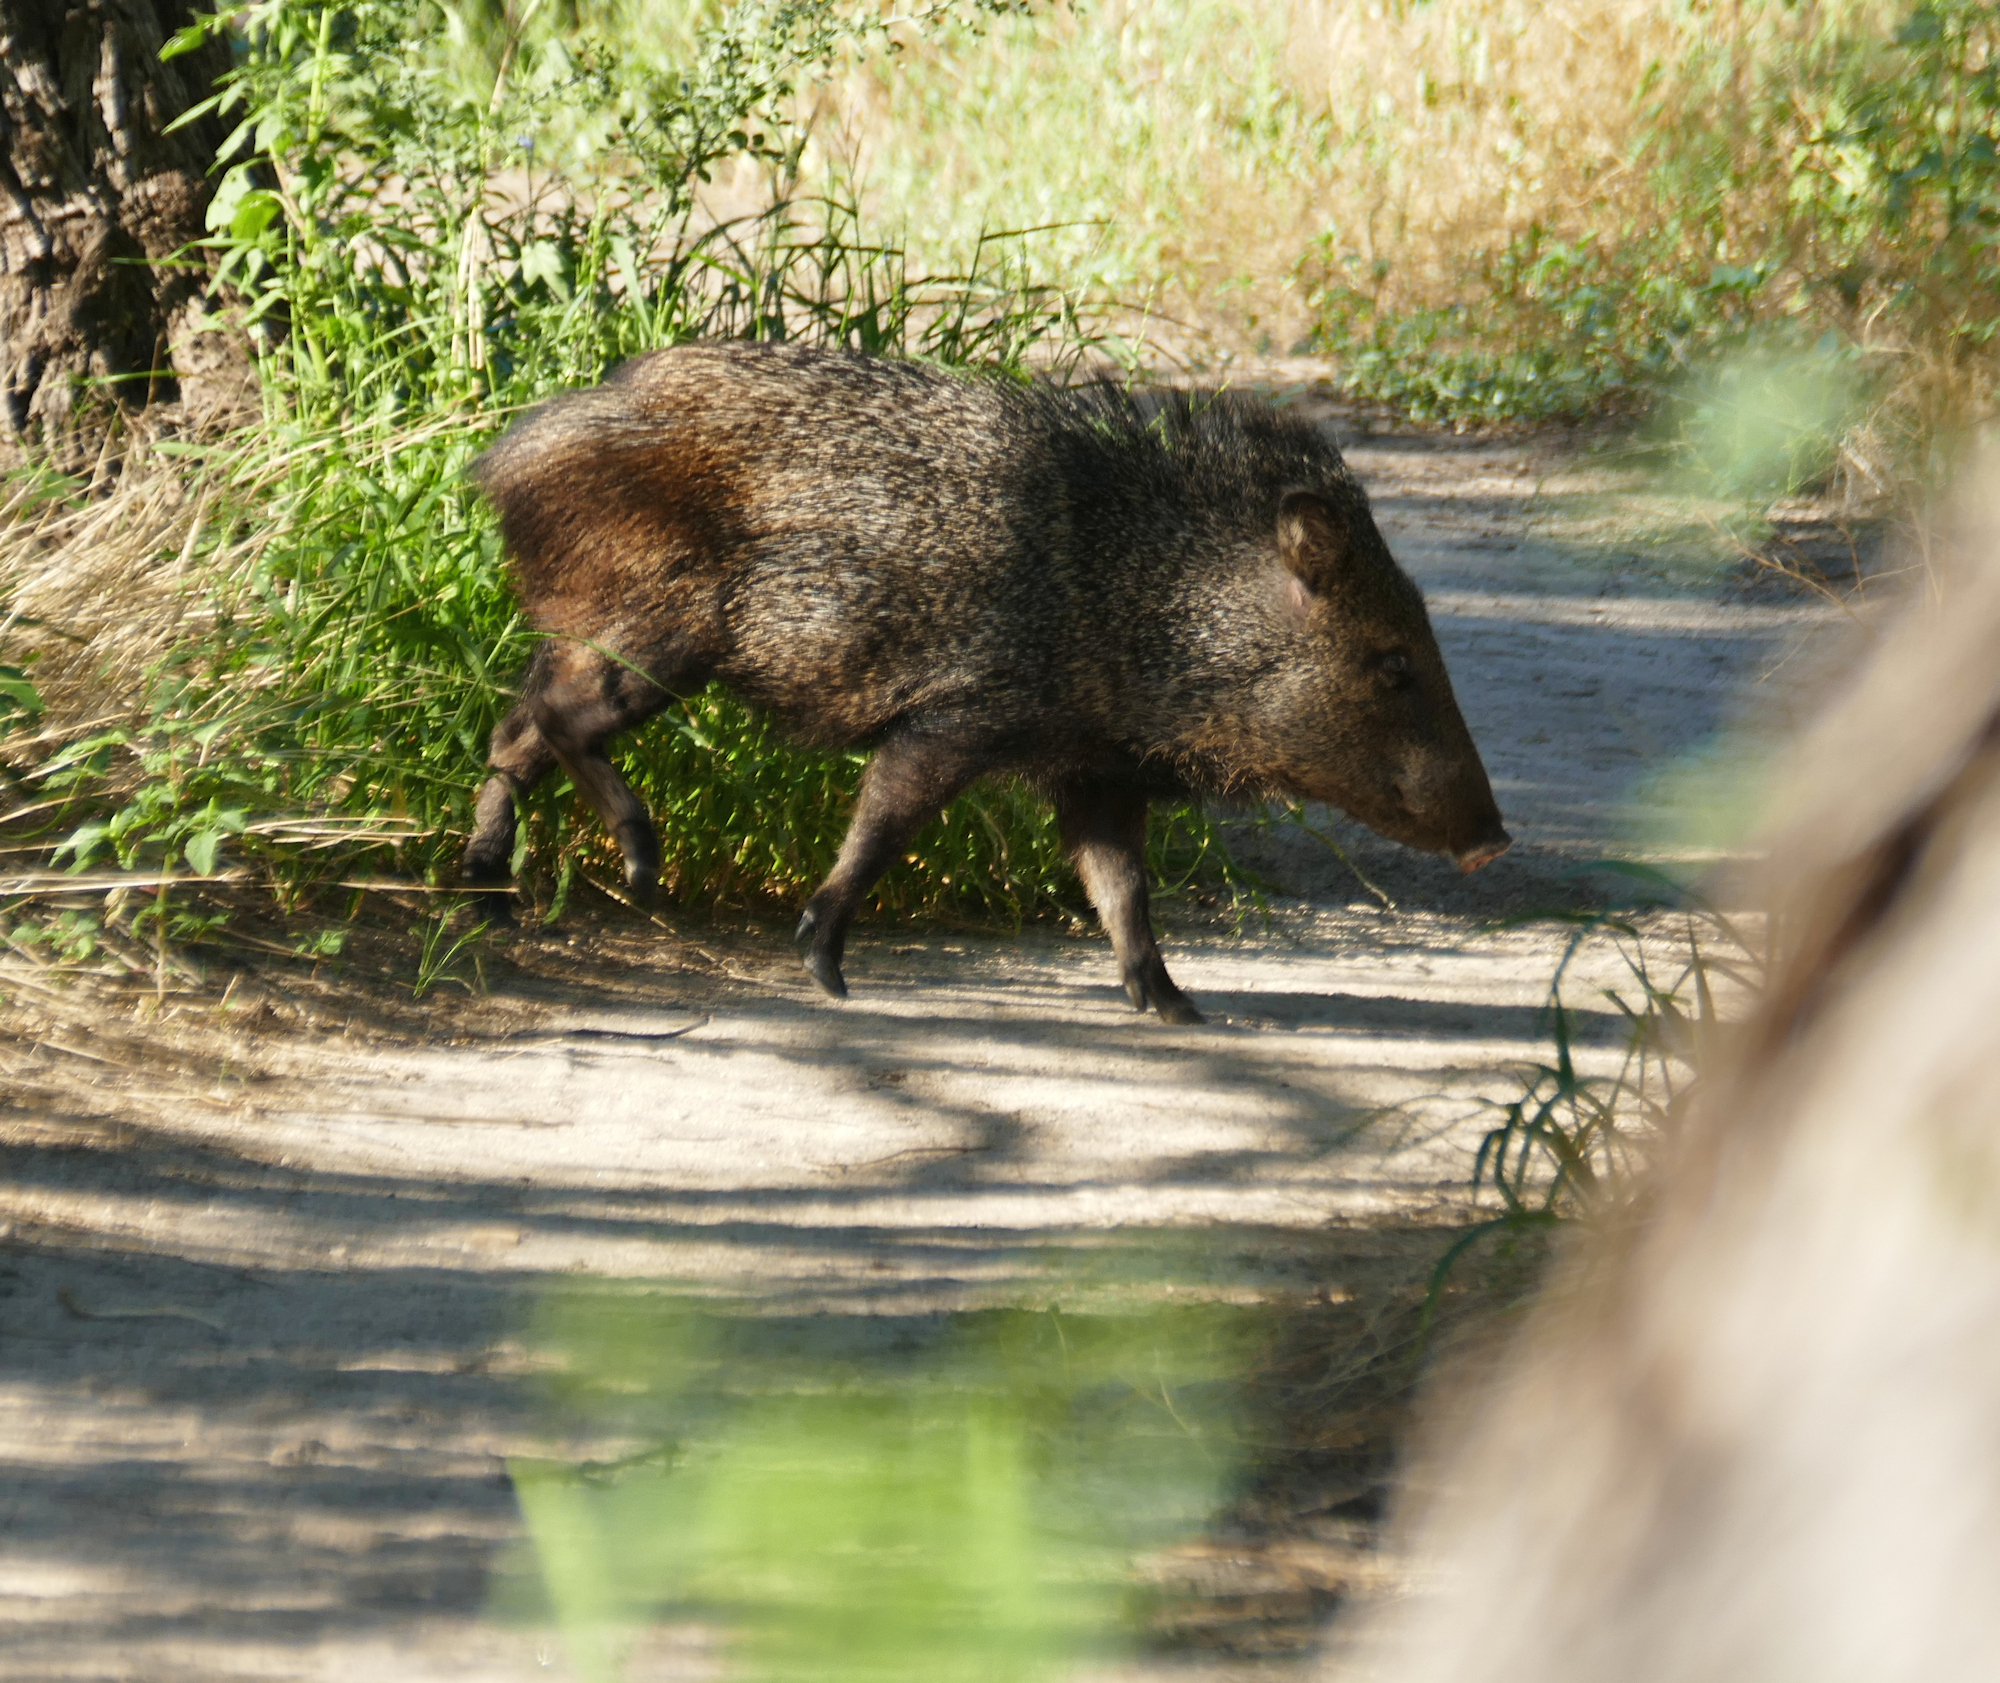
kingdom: Animalia
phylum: Chordata
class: Mammalia
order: Artiodactyla
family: Tayassuidae
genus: Pecari
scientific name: Pecari tajacu
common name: Collared peccary
